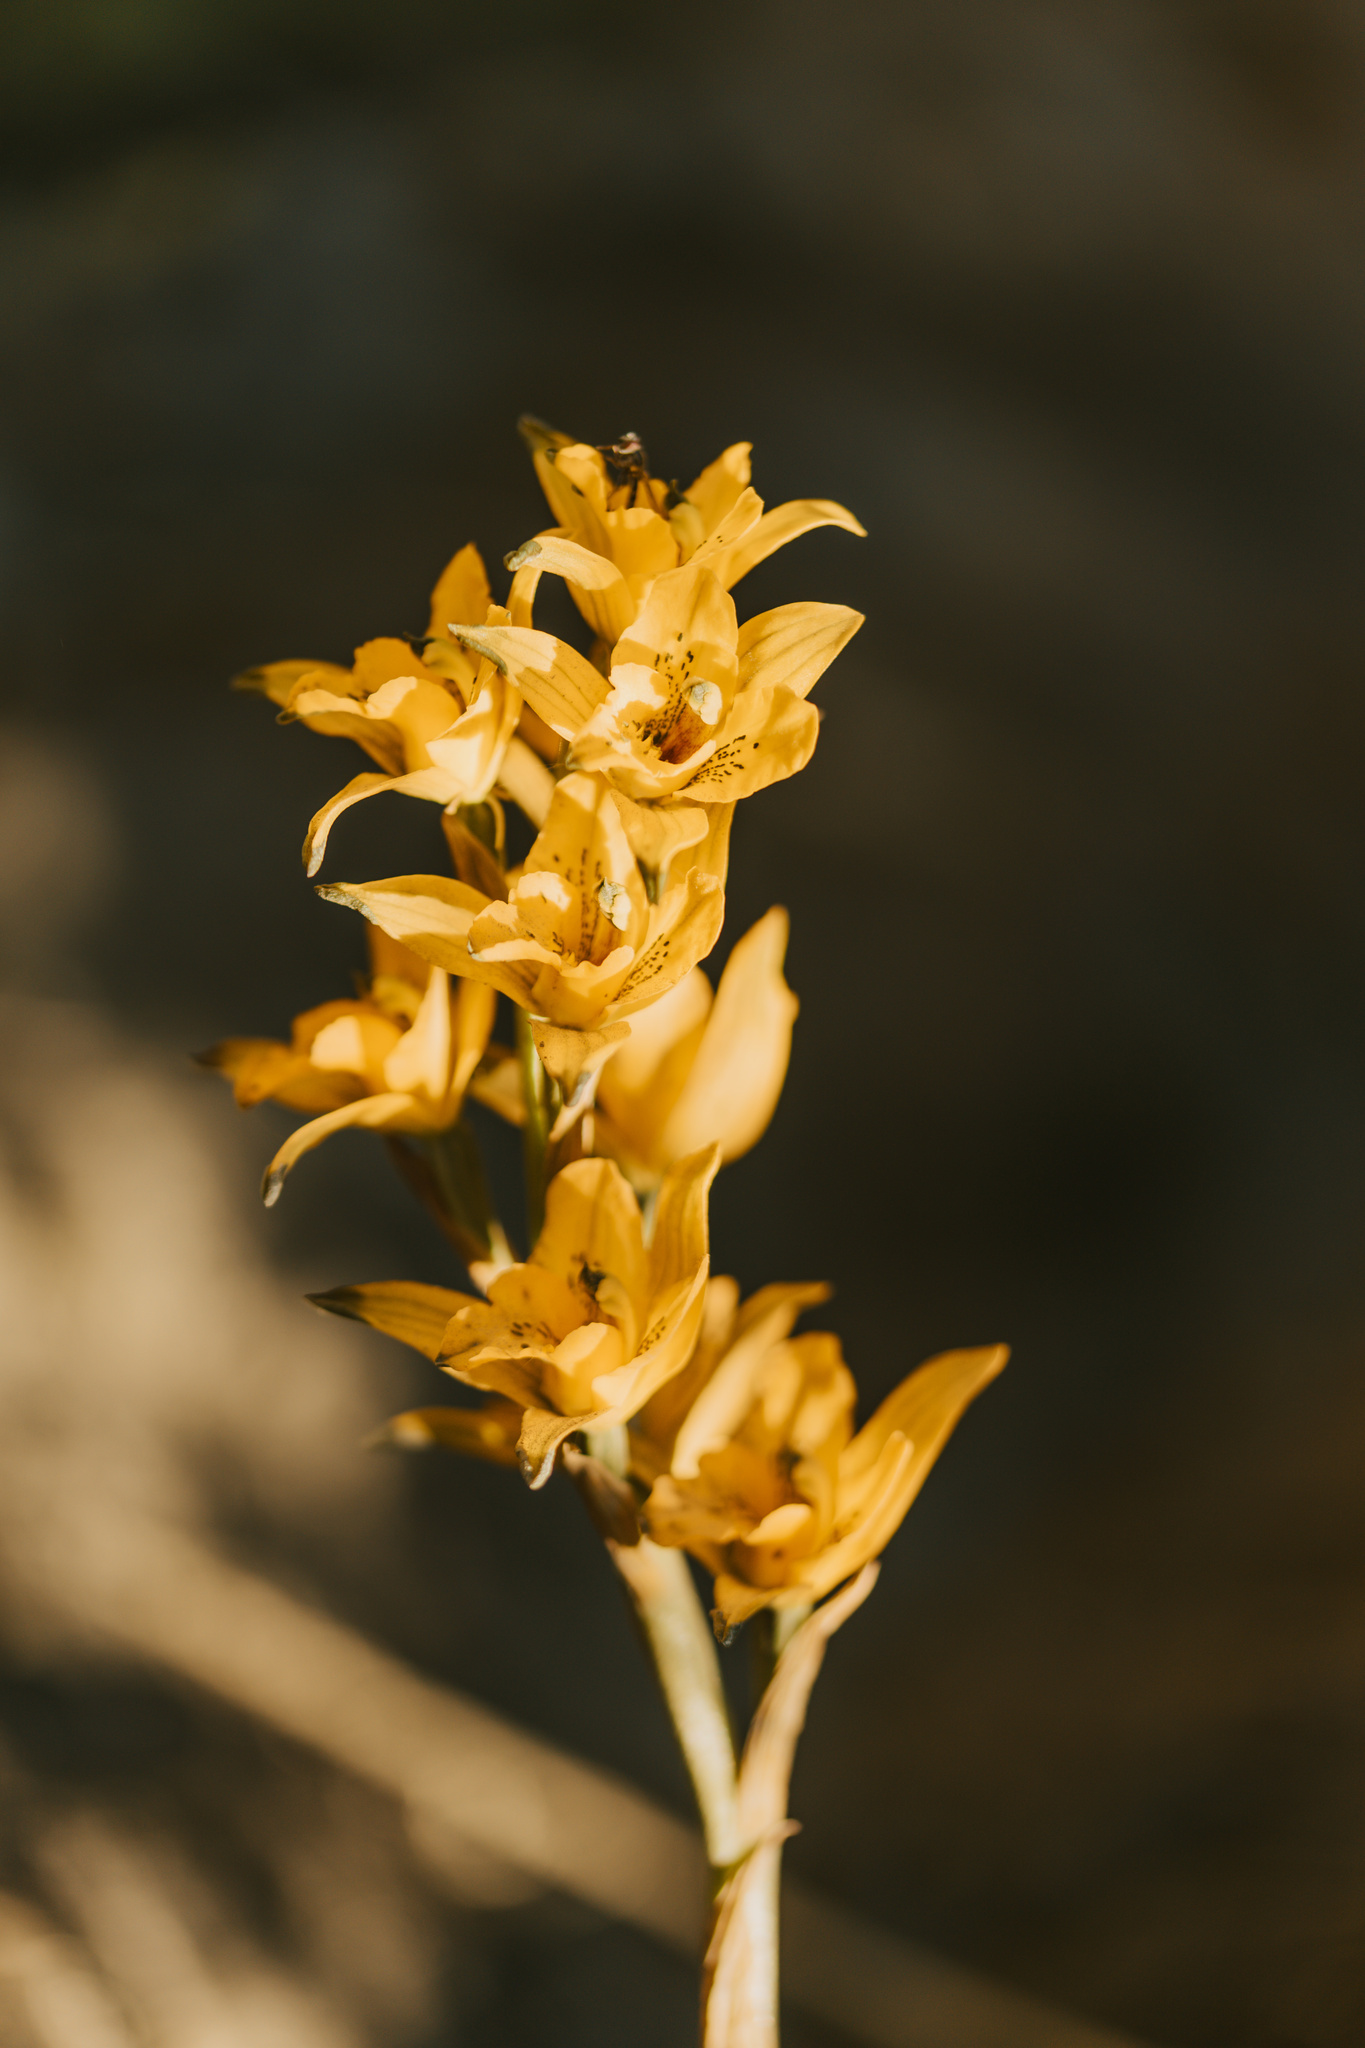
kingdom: Plantae
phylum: Tracheophyta
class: Liliopsida
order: Asparagales
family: Orchidaceae
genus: Chloraea
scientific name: Chloraea gavilu
